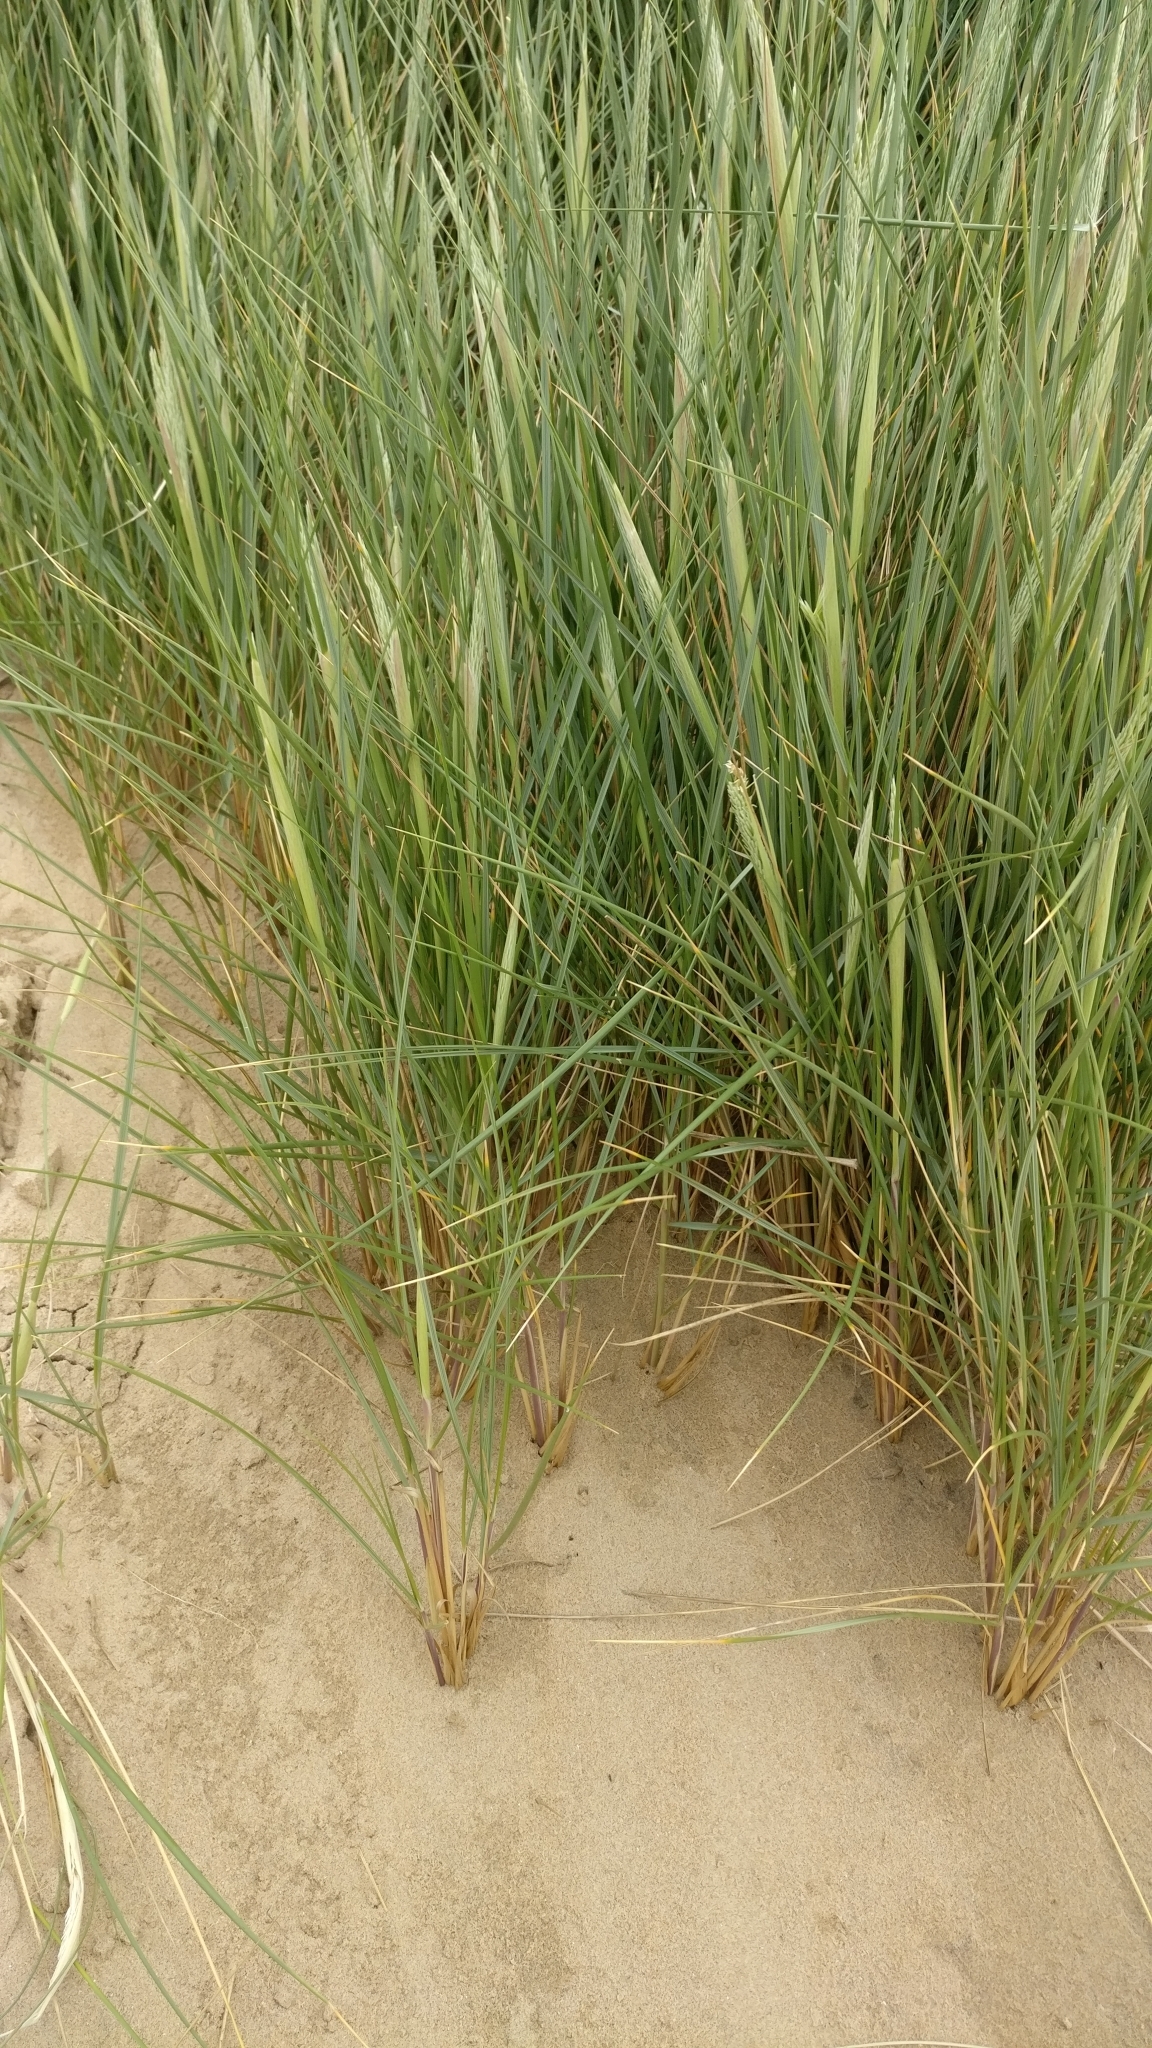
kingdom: Plantae
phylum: Tracheophyta
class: Liliopsida
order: Poales
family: Poaceae
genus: Calamagrostis
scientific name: Calamagrostis arenaria
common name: European beachgrass
